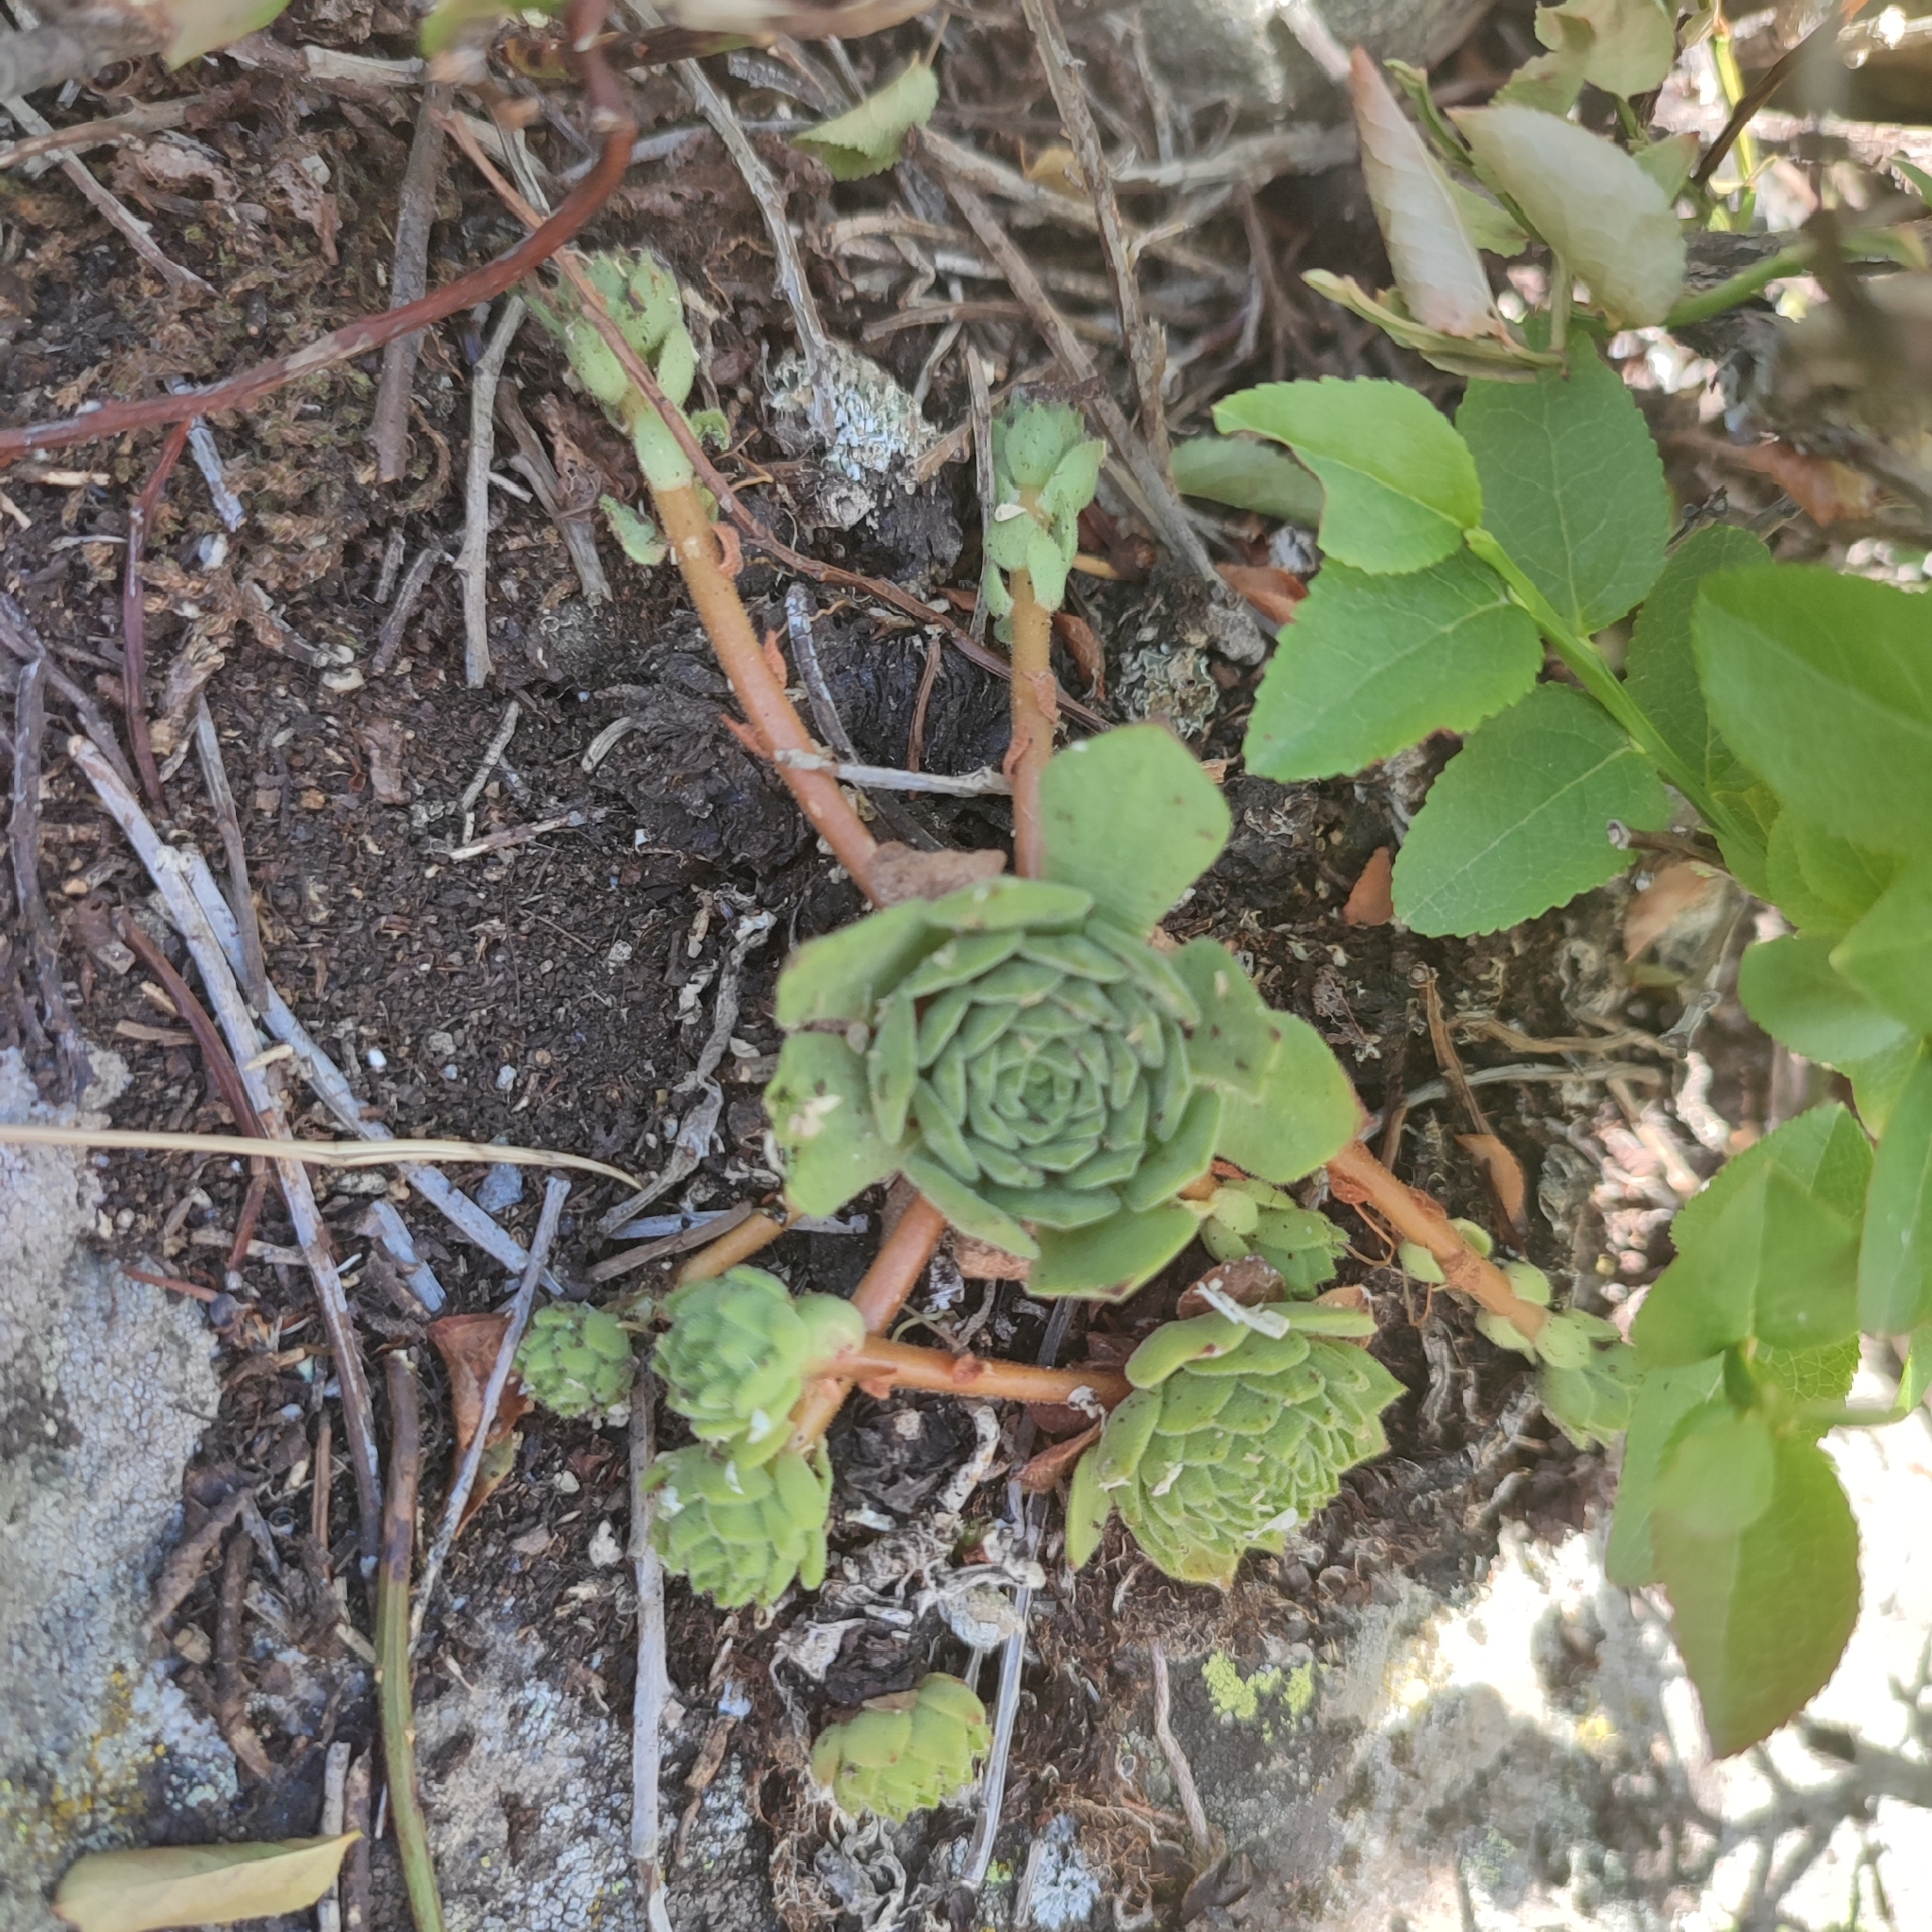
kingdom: Plantae
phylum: Tracheophyta
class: Magnoliopsida
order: Saxifragales
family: Crassulaceae
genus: Sempervivum
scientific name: Sempervivum montanum
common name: Mountain house-leek
